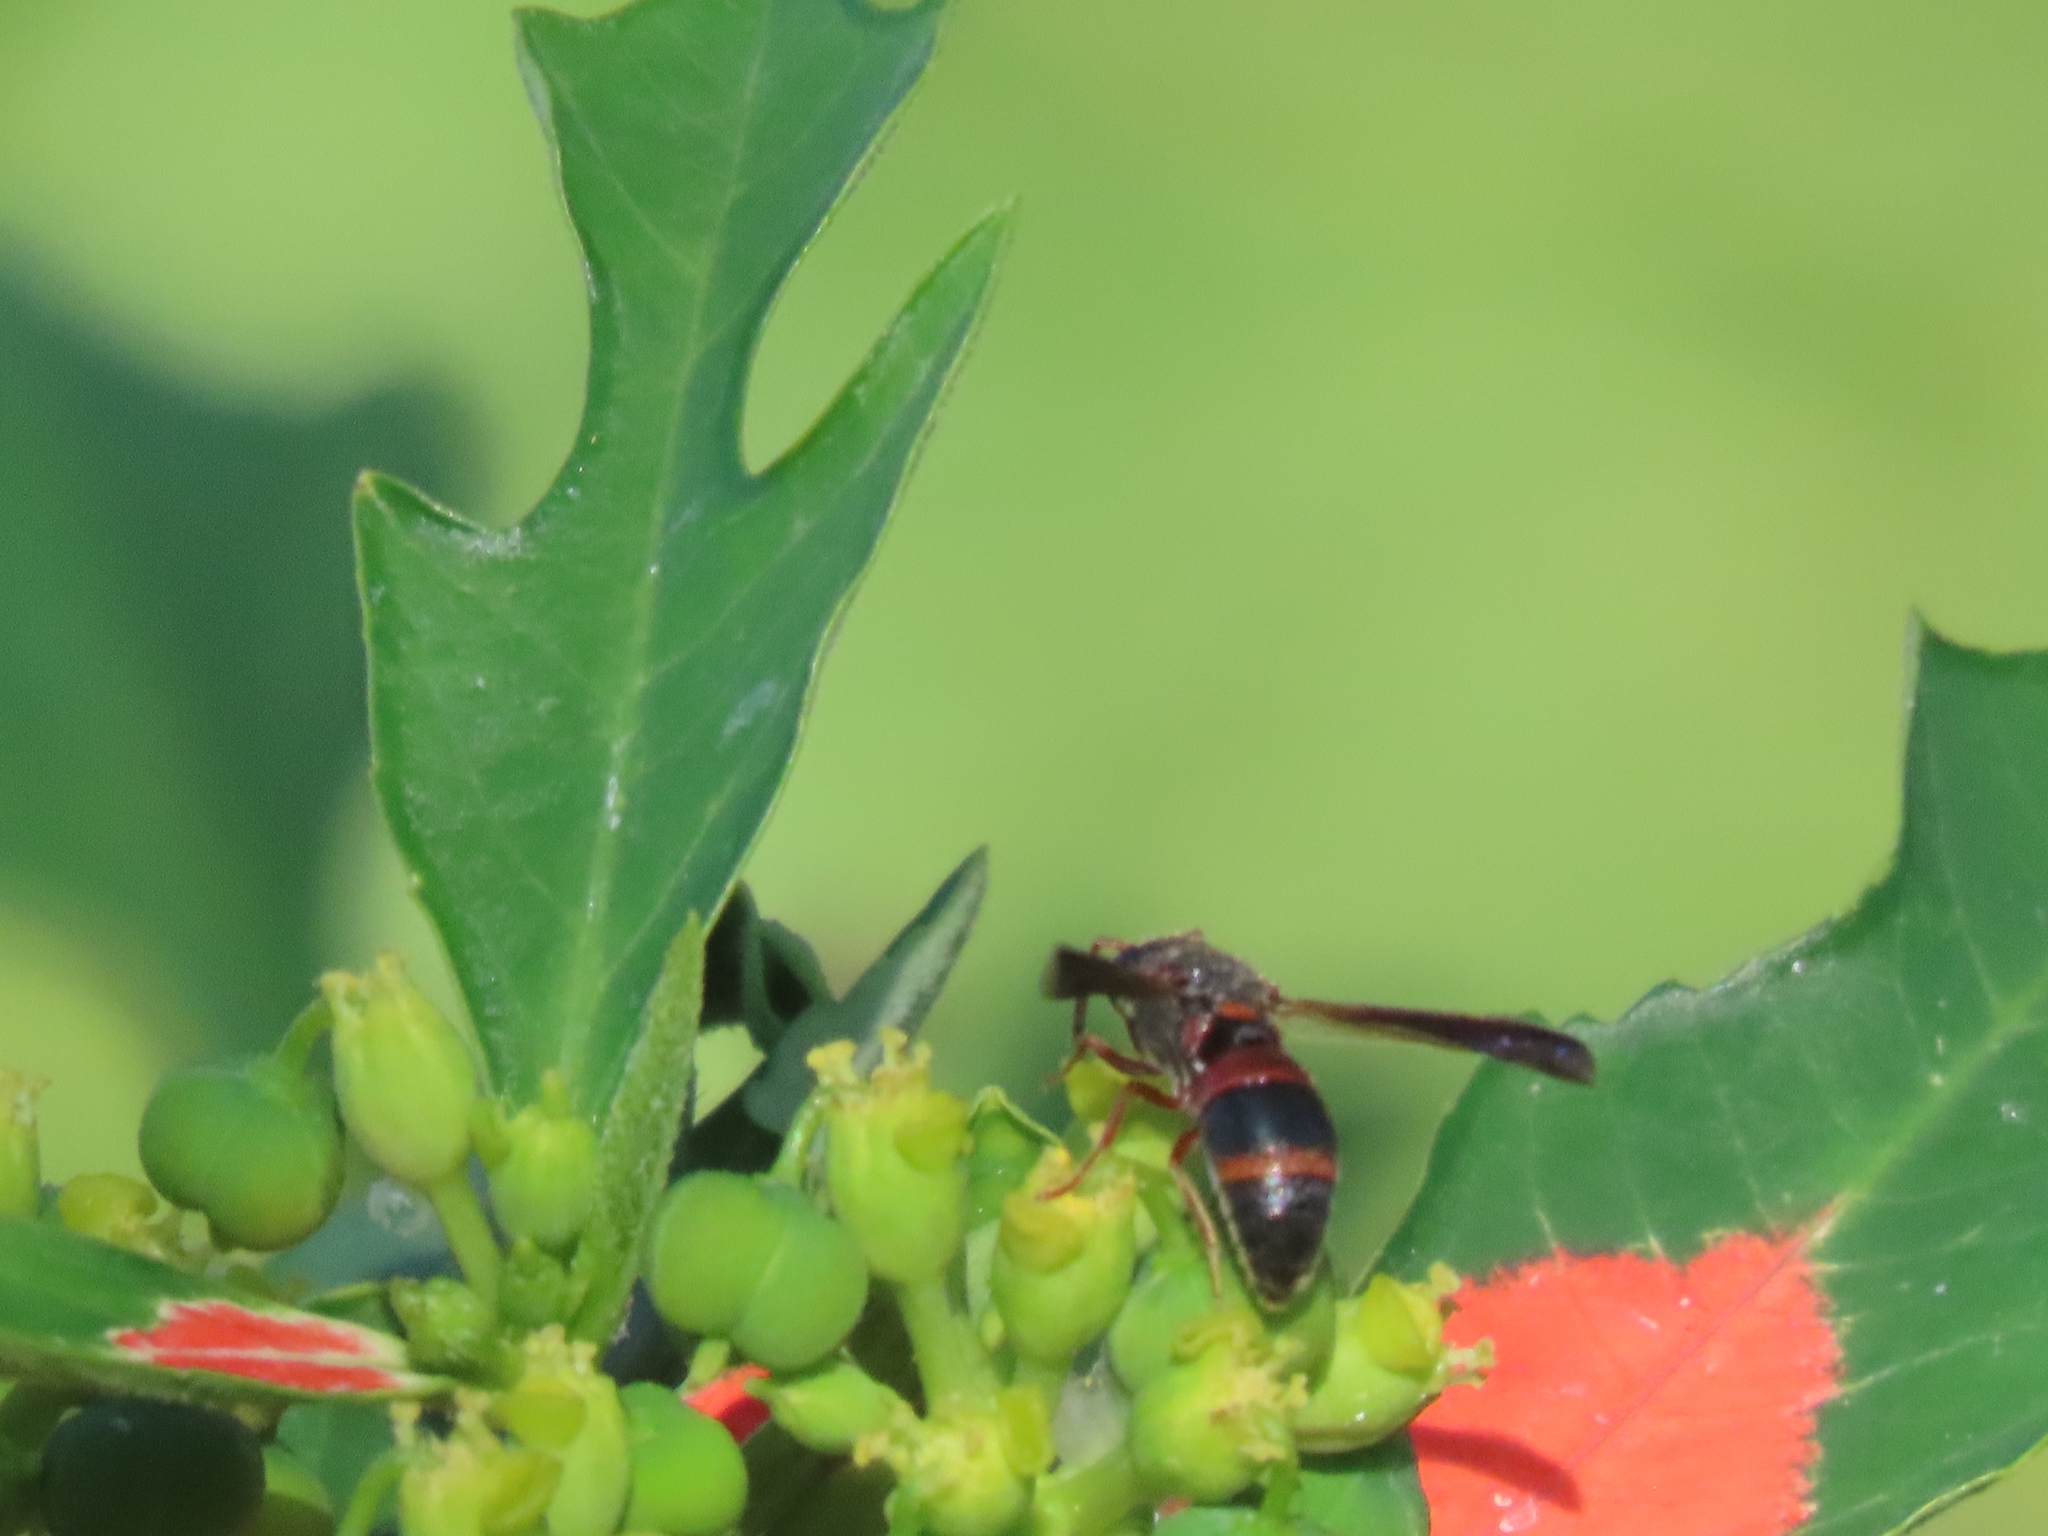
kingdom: Animalia
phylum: Arthropoda
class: Insecta
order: Hymenoptera
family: Eumenidae
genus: Pachodynerus
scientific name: Pachodynerus erynnis
